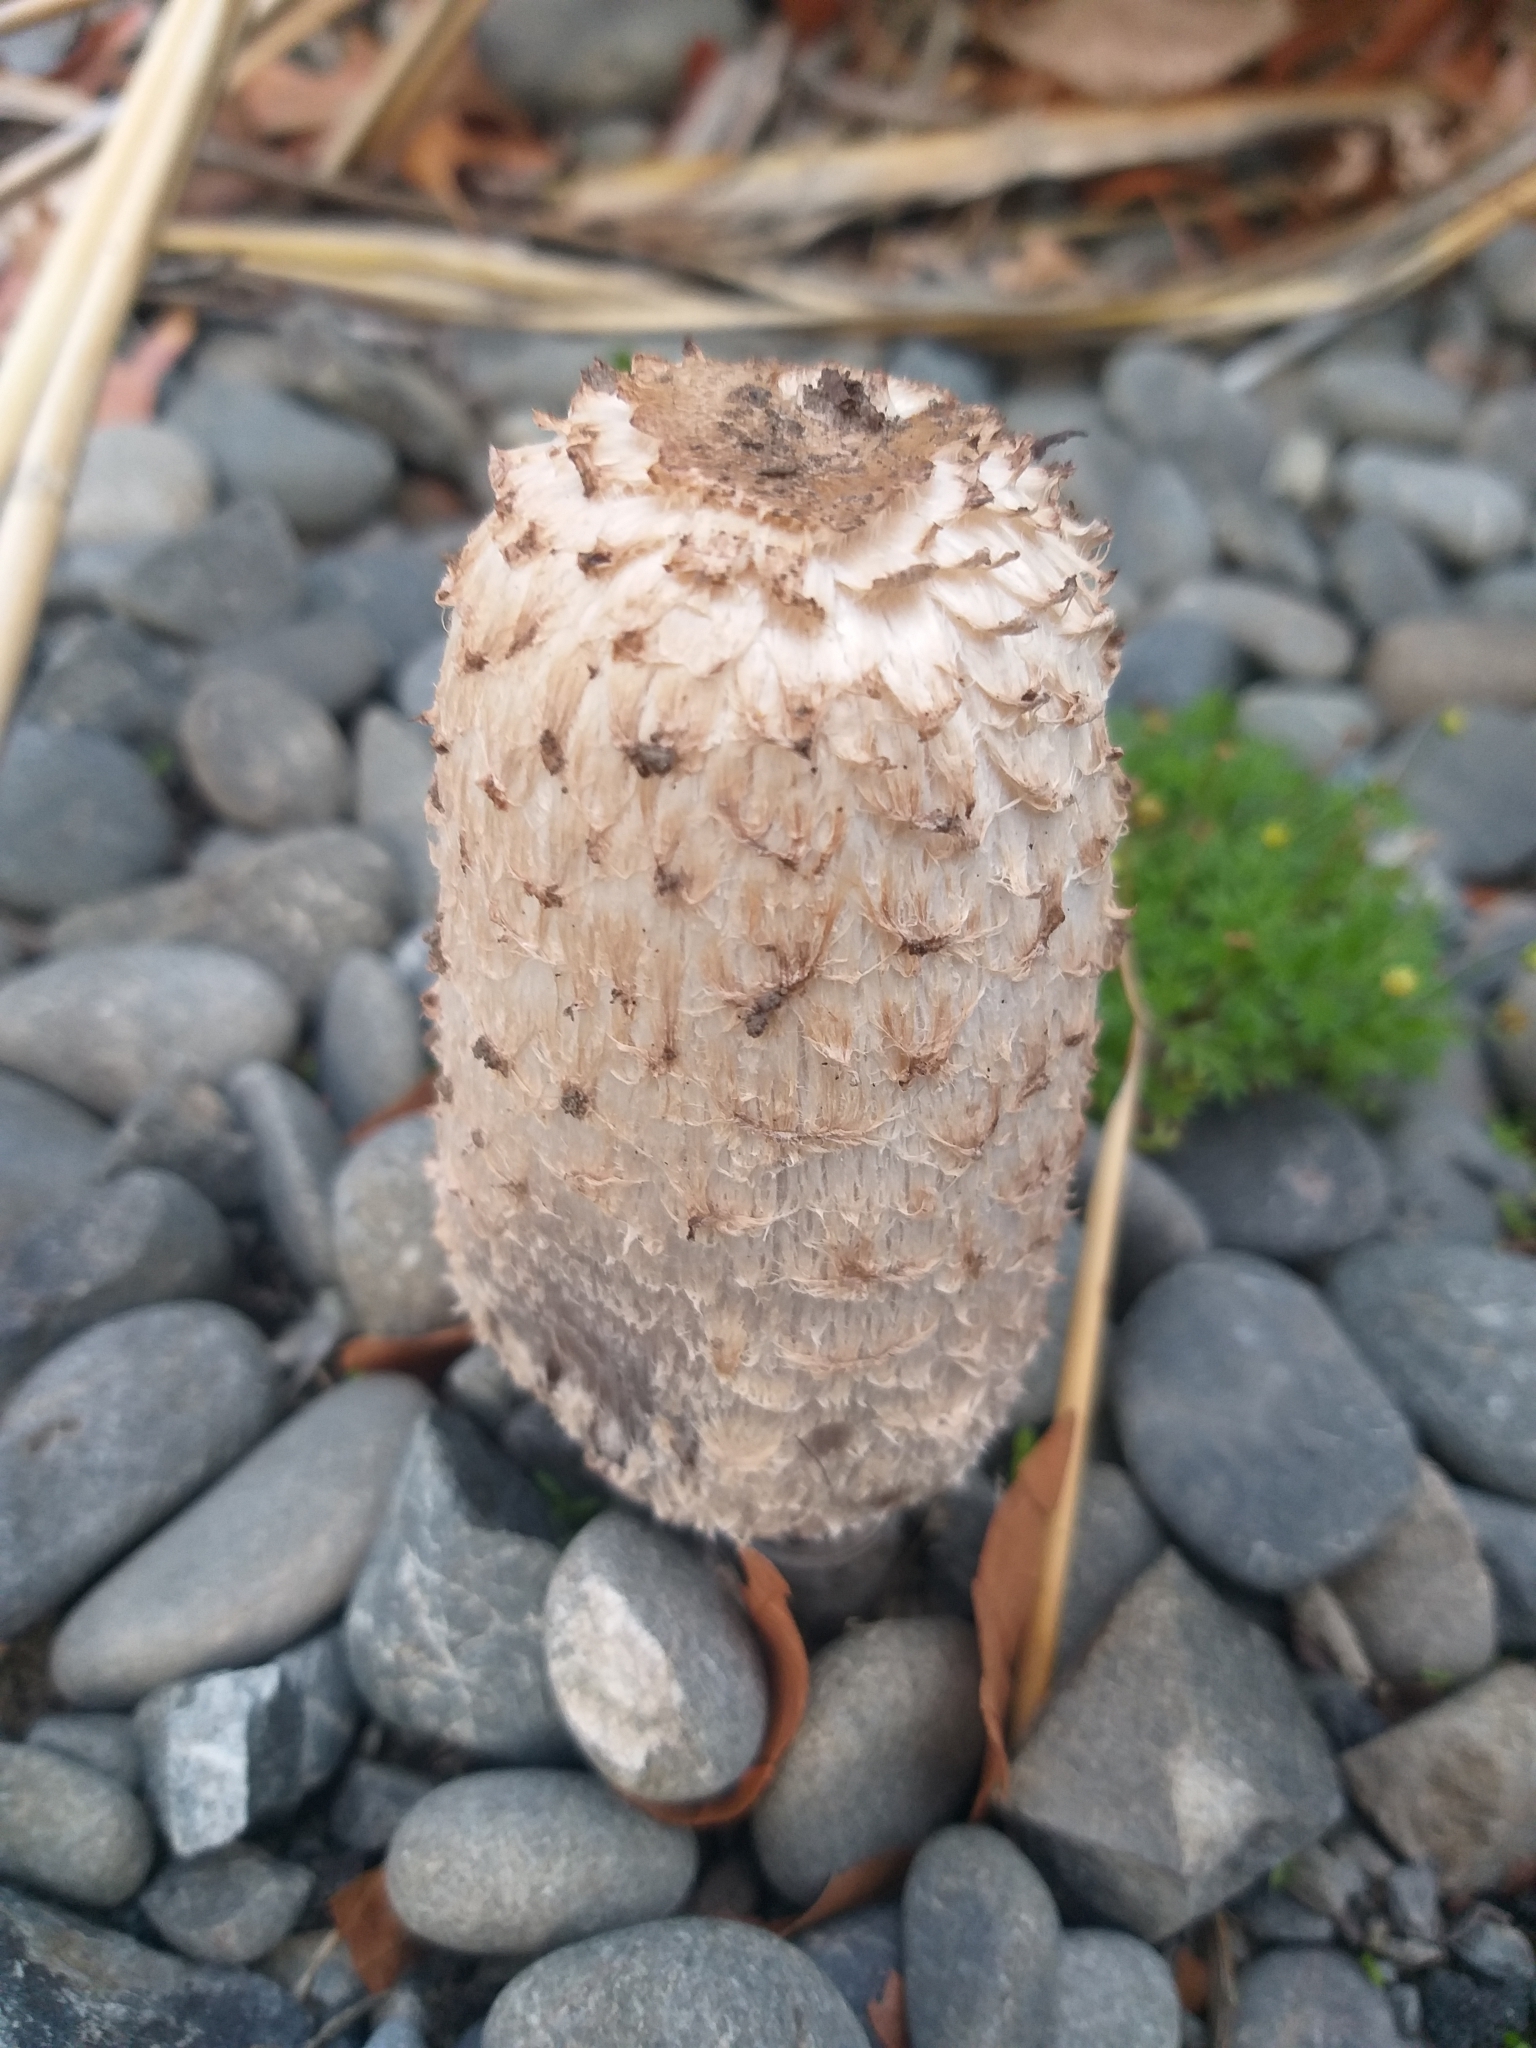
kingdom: Fungi
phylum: Basidiomycota
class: Agaricomycetes
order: Agaricales
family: Agaricaceae
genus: Coprinus
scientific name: Coprinus comatus
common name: Lawyer's wig
